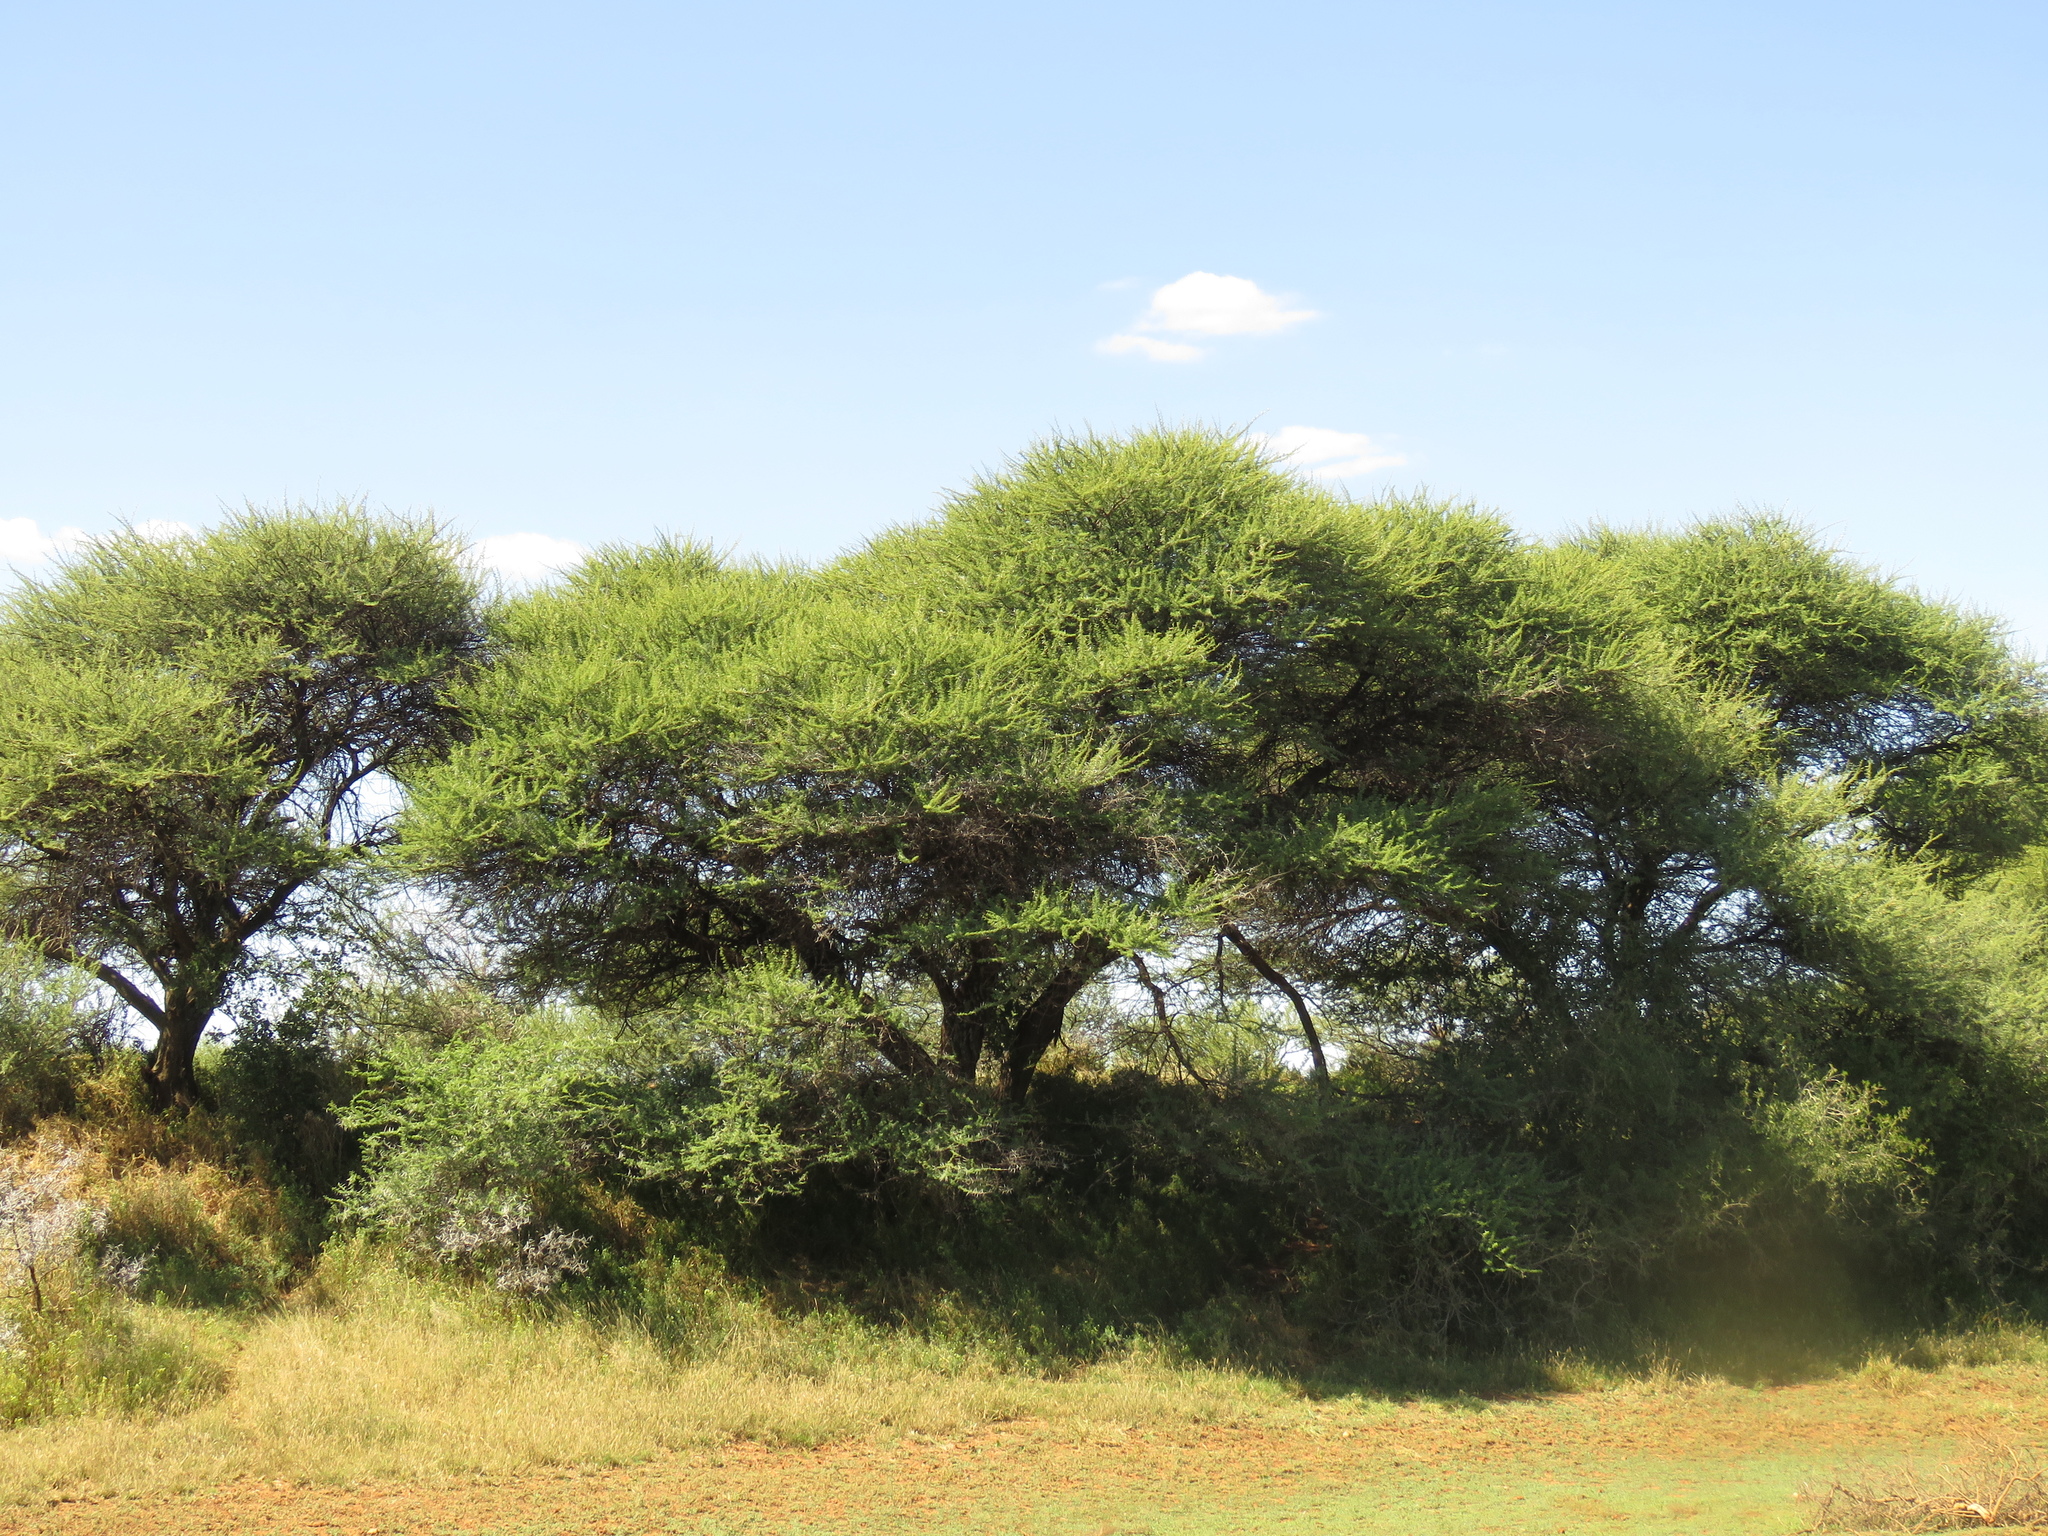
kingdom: Plantae
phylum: Tracheophyta
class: Magnoliopsida
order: Fabales
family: Fabaceae
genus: Vachellia
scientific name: Vachellia karroo
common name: Sweet thorn
